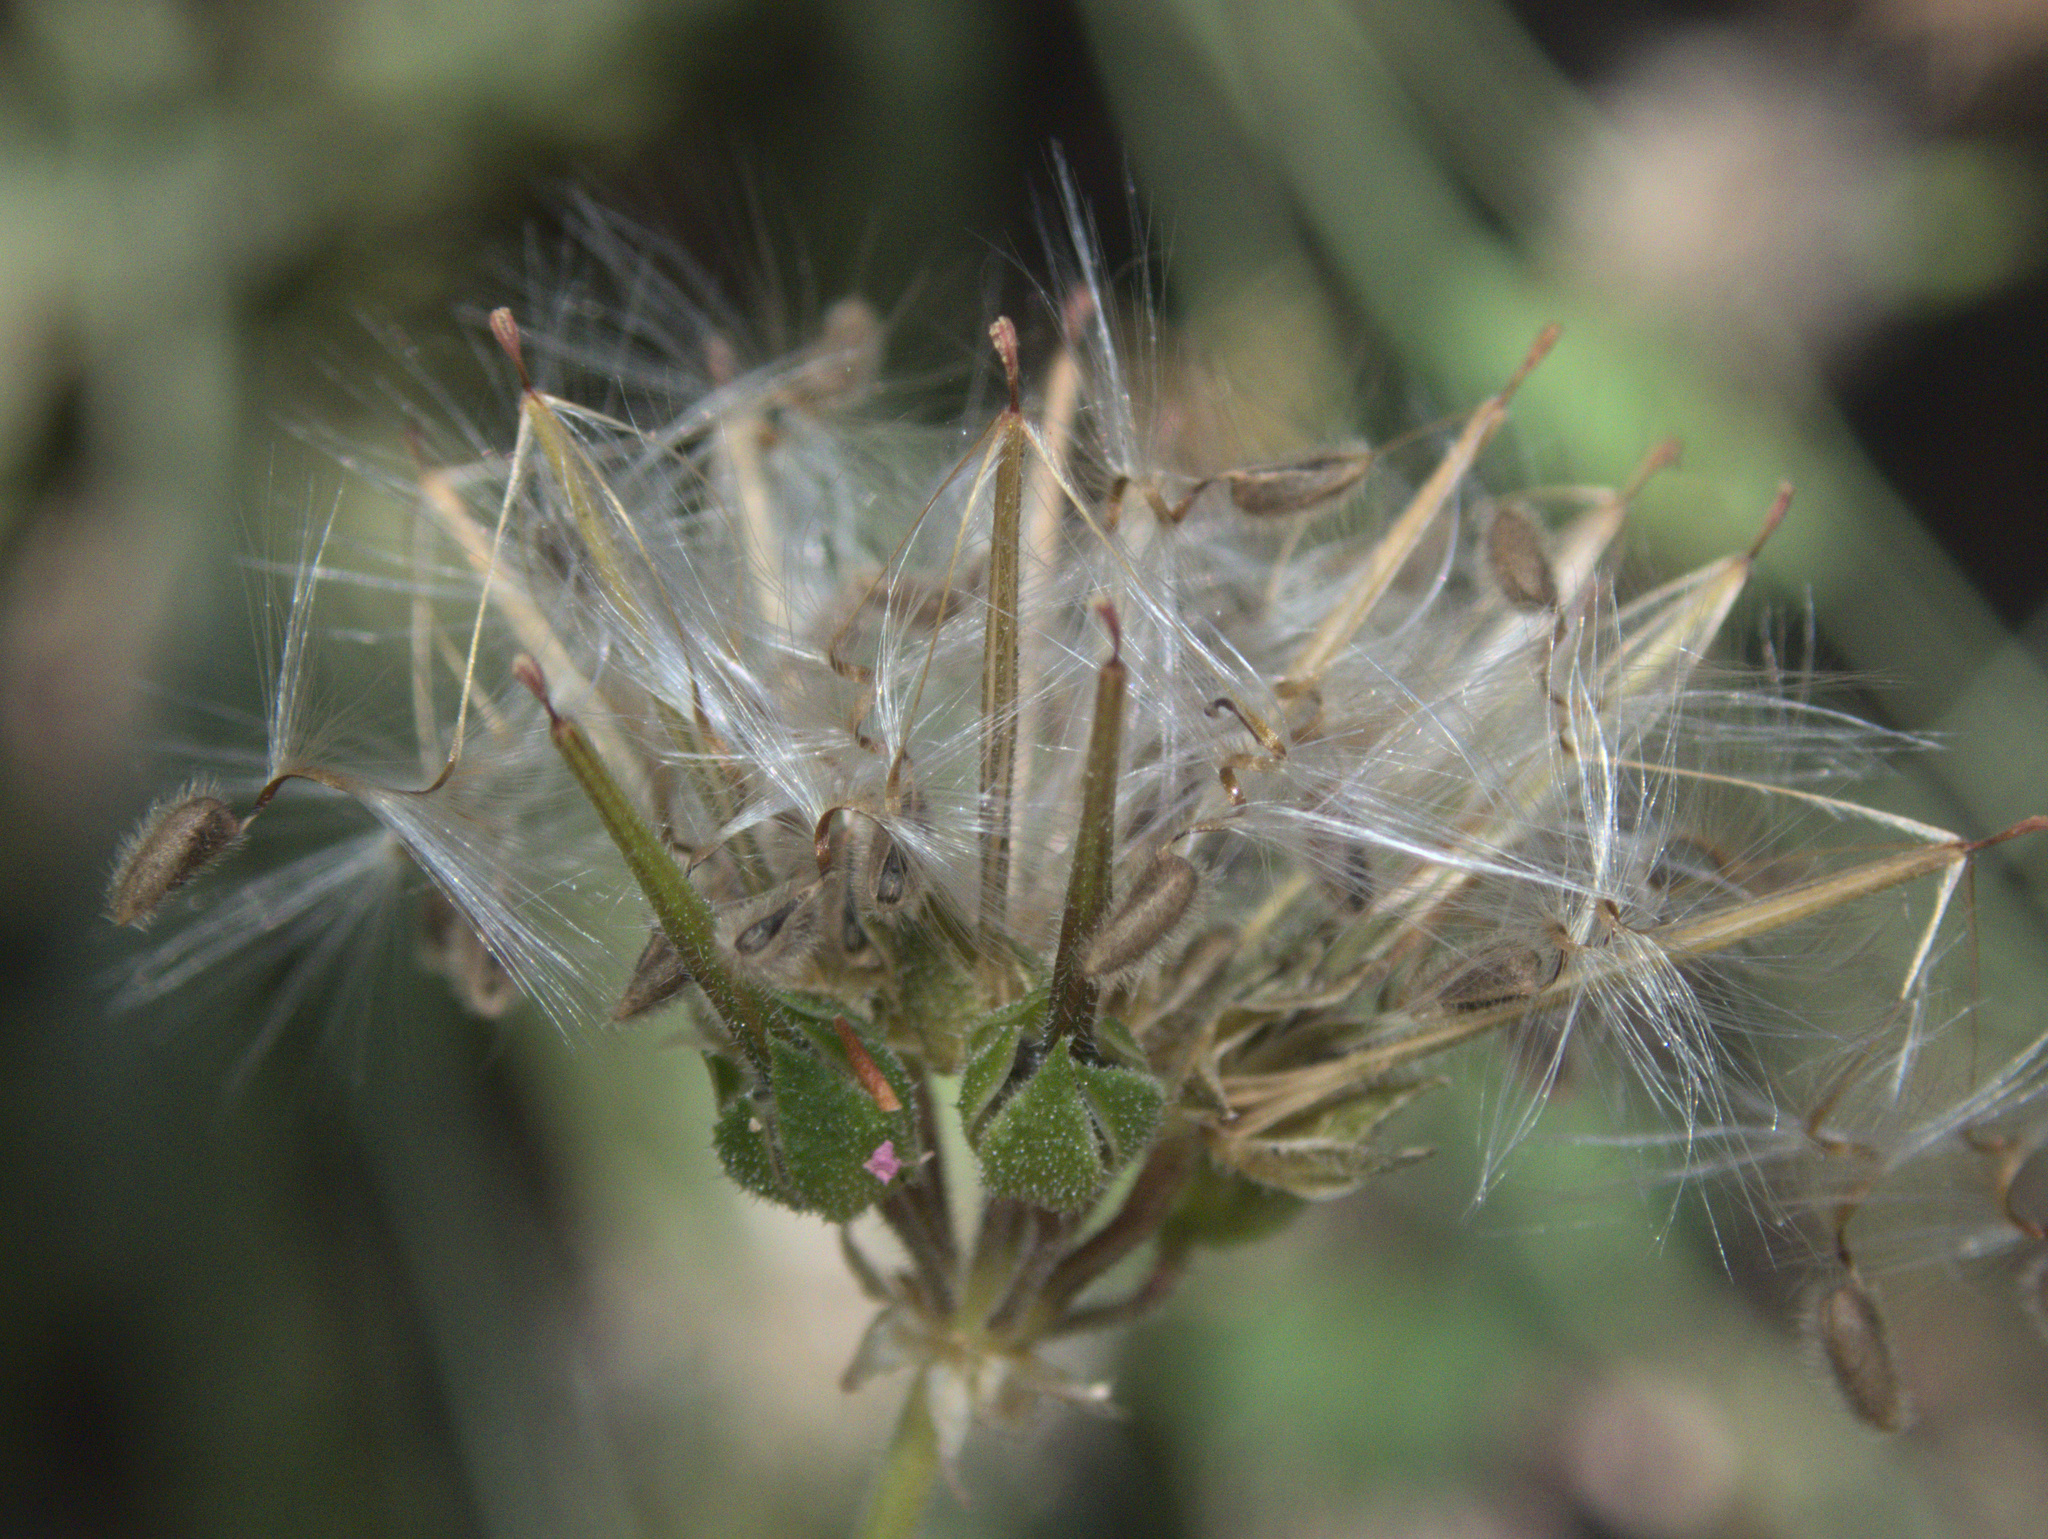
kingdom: Plantae
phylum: Tracheophyta
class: Magnoliopsida
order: Geraniales
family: Geraniaceae
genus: Pelargonium
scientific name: Pelargonium inodorum
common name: Kopata geranium
